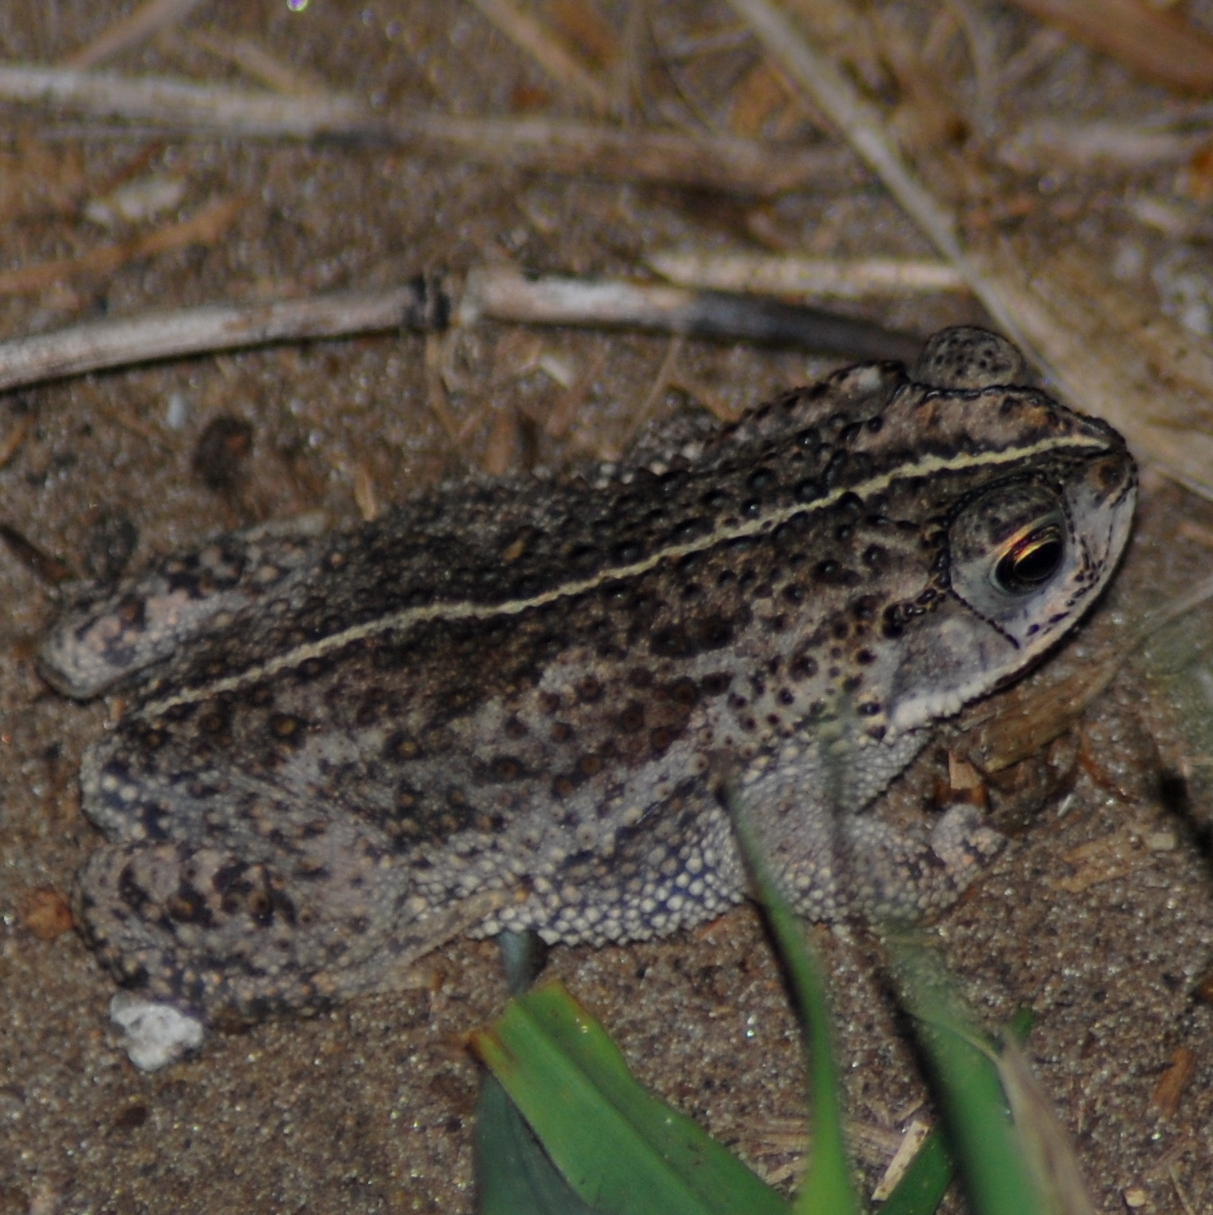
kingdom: Animalia
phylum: Chordata
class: Amphibia
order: Anura
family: Bufonidae
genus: Rhinella
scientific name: Rhinella dorbignyi
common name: D´orbigny’s toad
